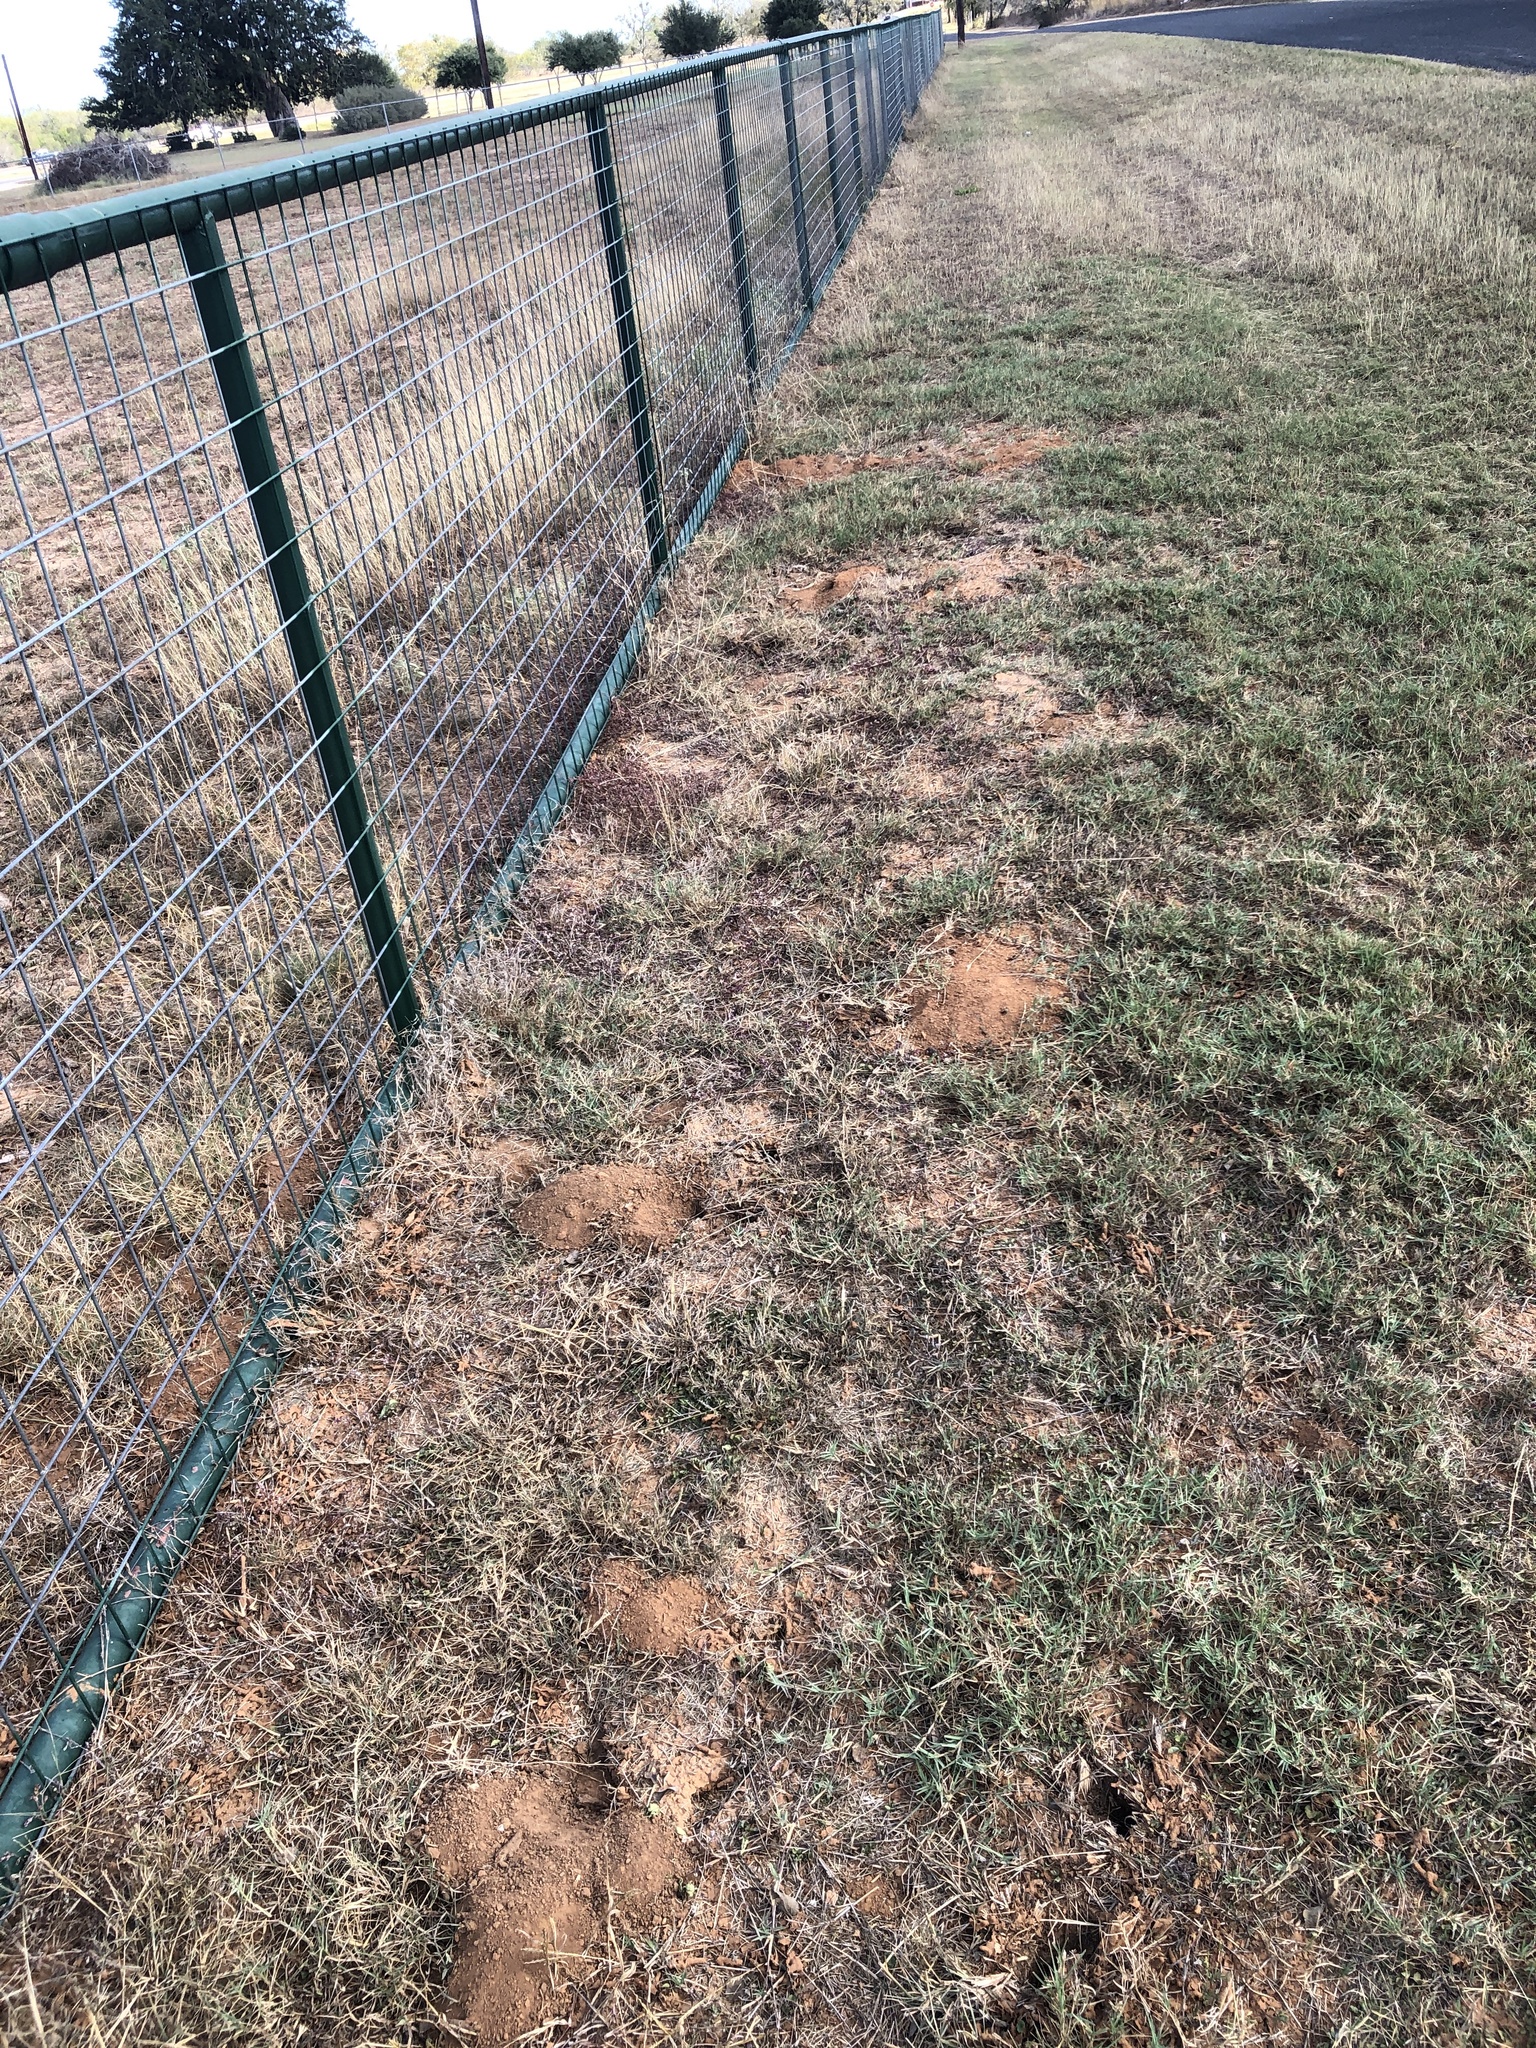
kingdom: Animalia
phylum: Chordata
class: Mammalia
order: Rodentia
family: Geomyidae
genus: Geomys
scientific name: Geomys attwateri
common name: Attwater's pocket gopher
